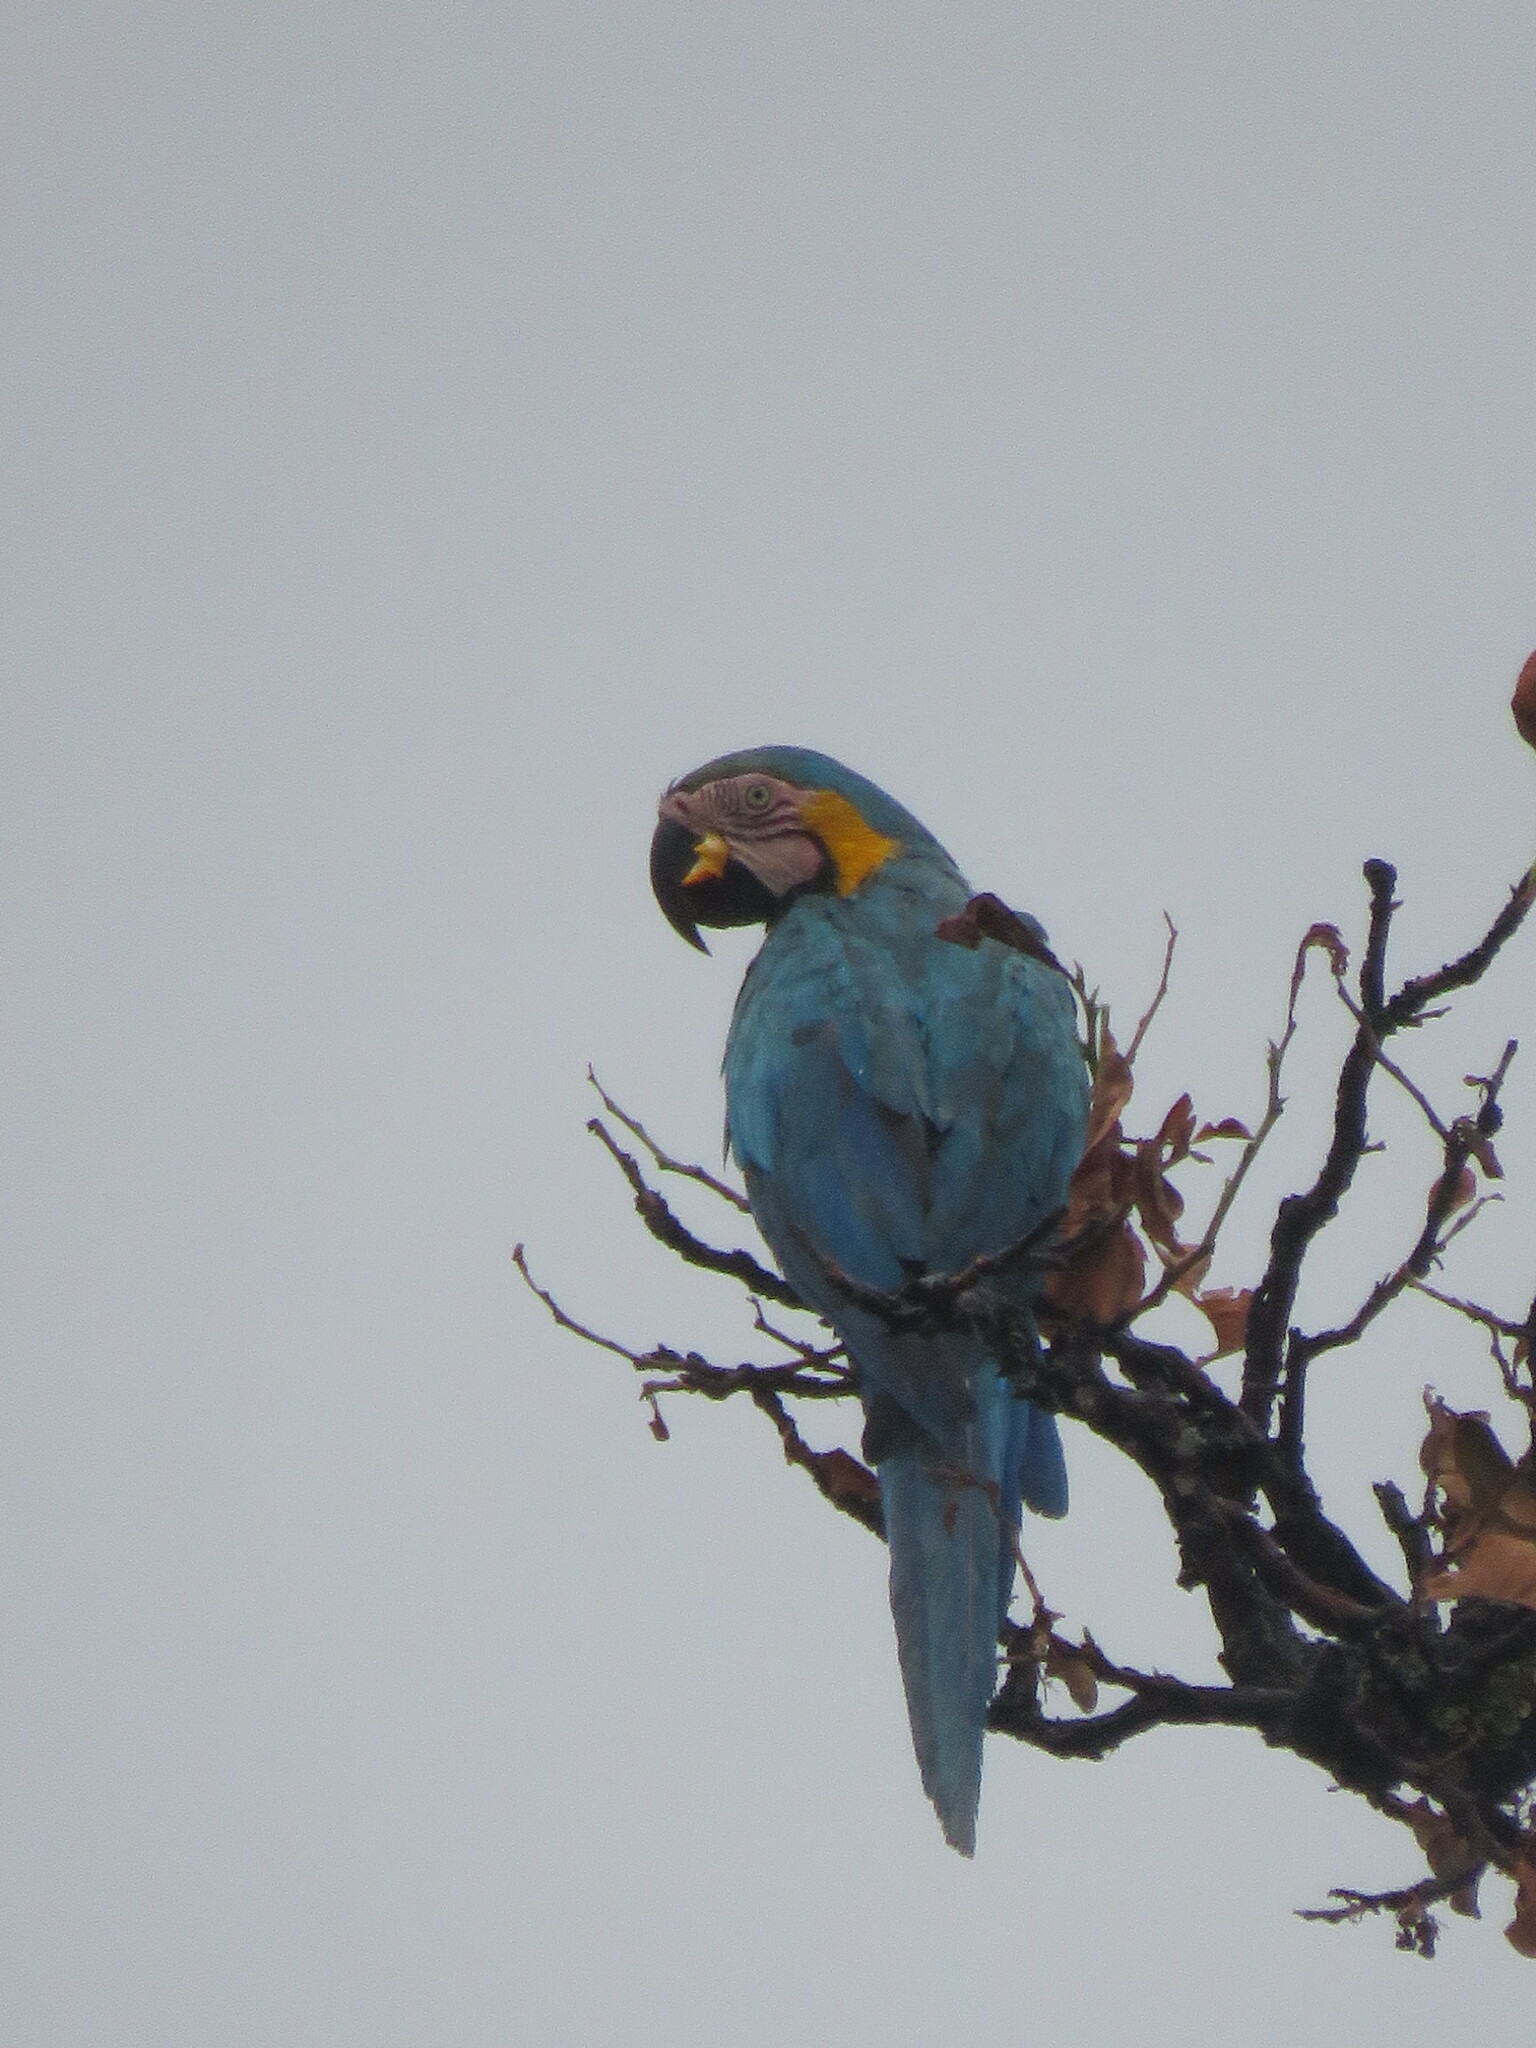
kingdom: Animalia
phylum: Chordata
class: Aves
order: Psittaciformes
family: Psittacidae
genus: Ara
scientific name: Ara ararauna
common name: Blue-and-yellow macaw
